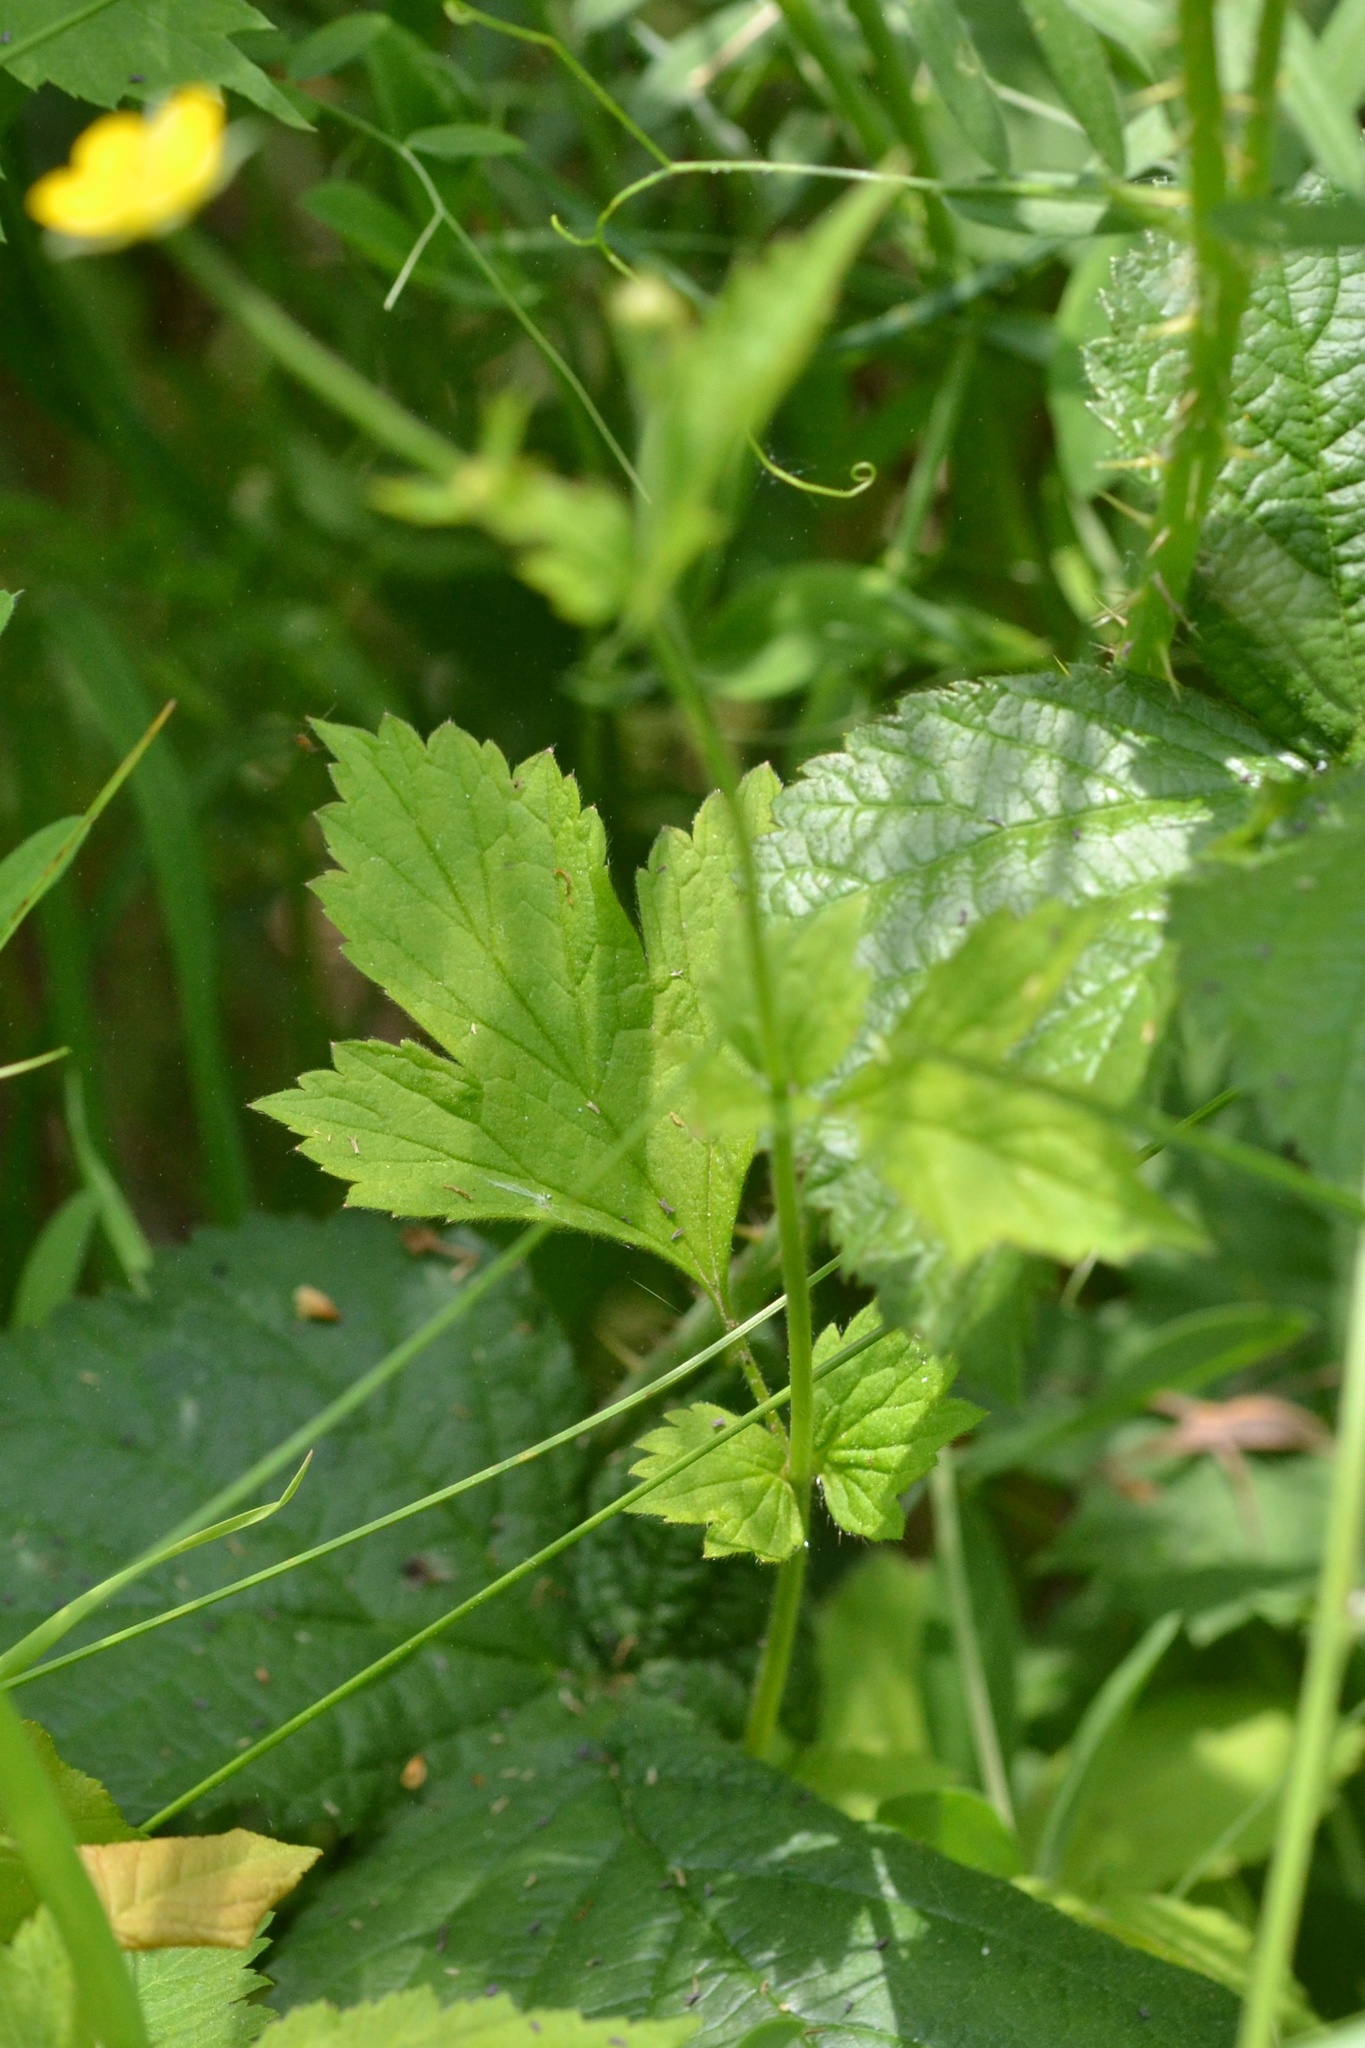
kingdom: Plantae
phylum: Tracheophyta
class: Magnoliopsida
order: Rosales
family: Rosaceae
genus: Geum
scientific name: Geum urbanum
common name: Wood avens
